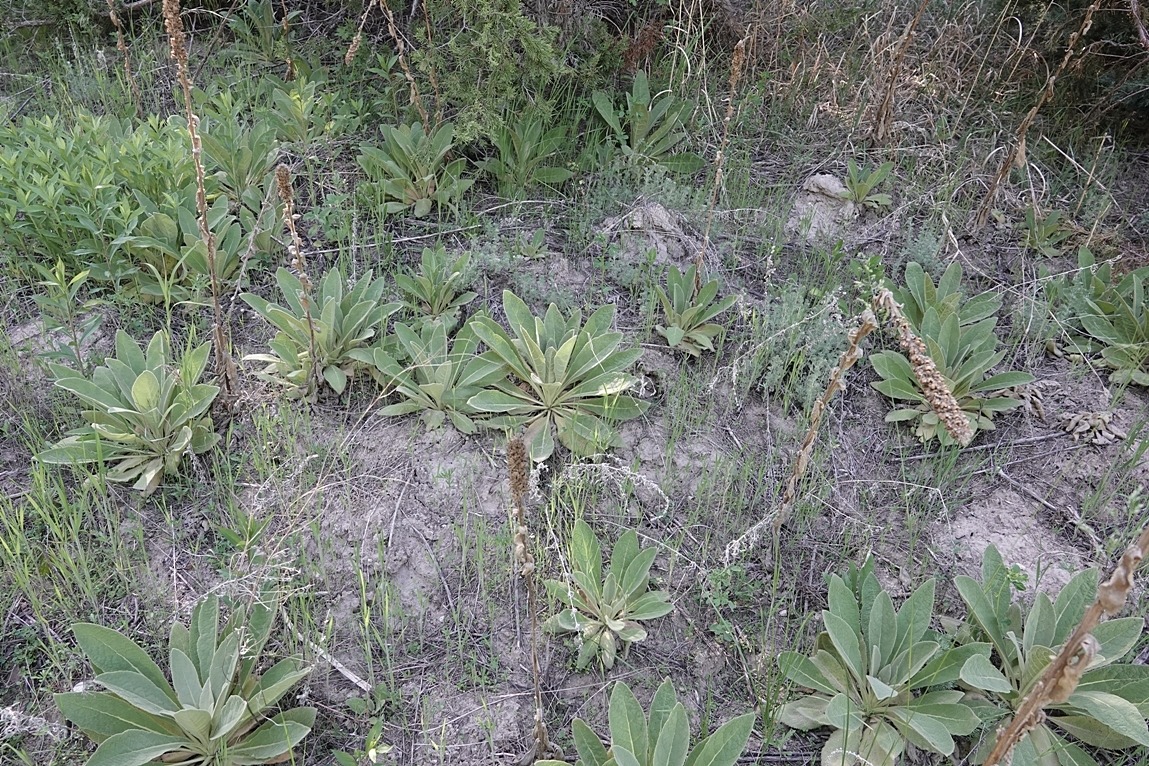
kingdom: Plantae
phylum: Tracheophyta
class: Magnoliopsida
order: Lamiales
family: Scrophulariaceae
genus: Verbascum
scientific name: Verbascum thapsus
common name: Common mullein
